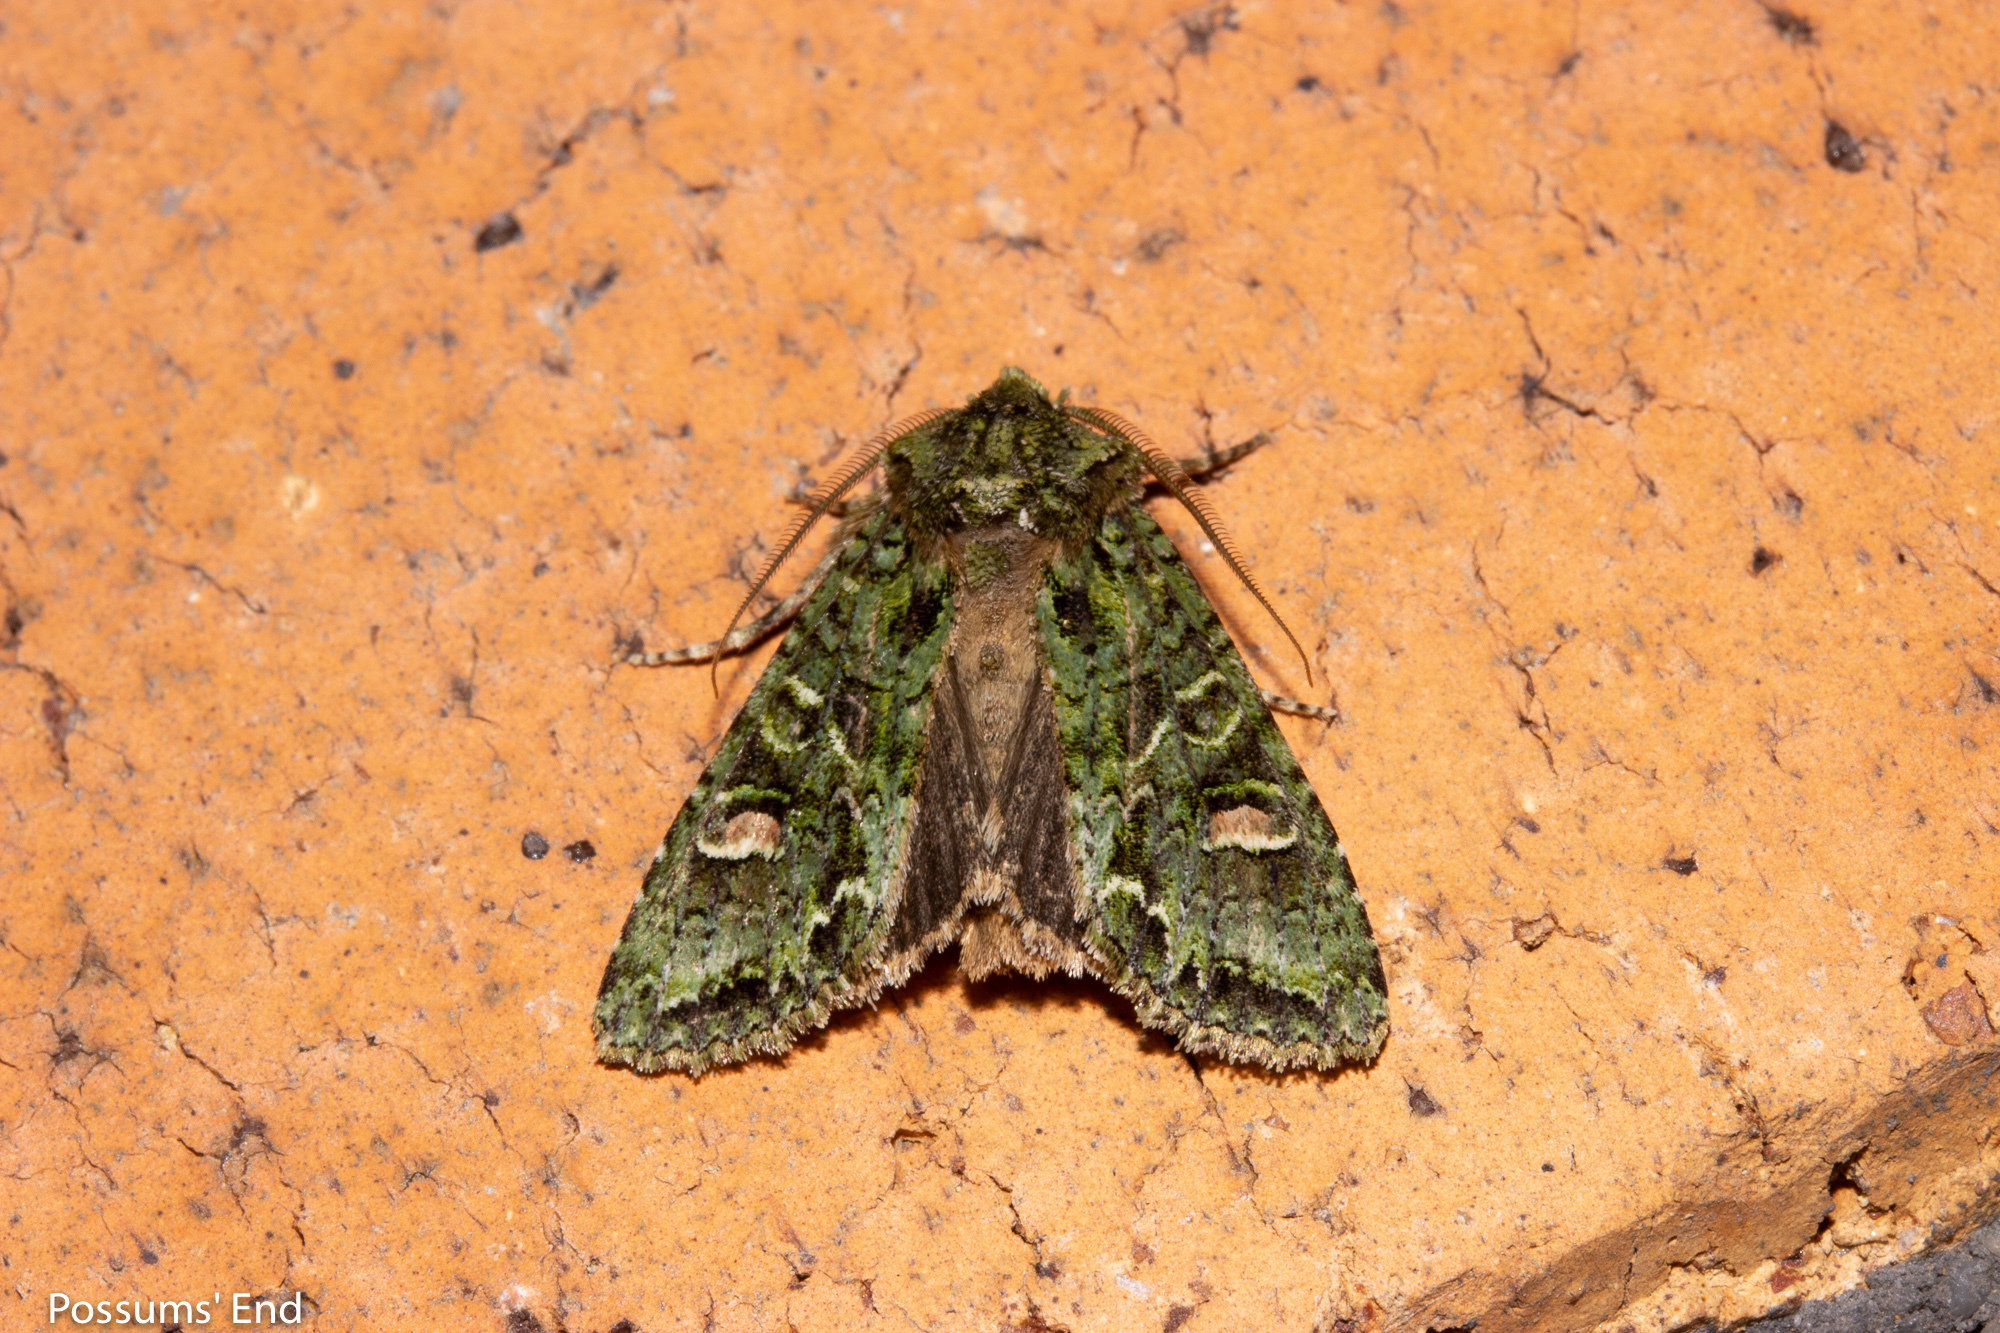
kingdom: Animalia
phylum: Arthropoda
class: Insecta
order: Lepidoptera
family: Noctuidae
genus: Ichneutica
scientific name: Ichneutica
